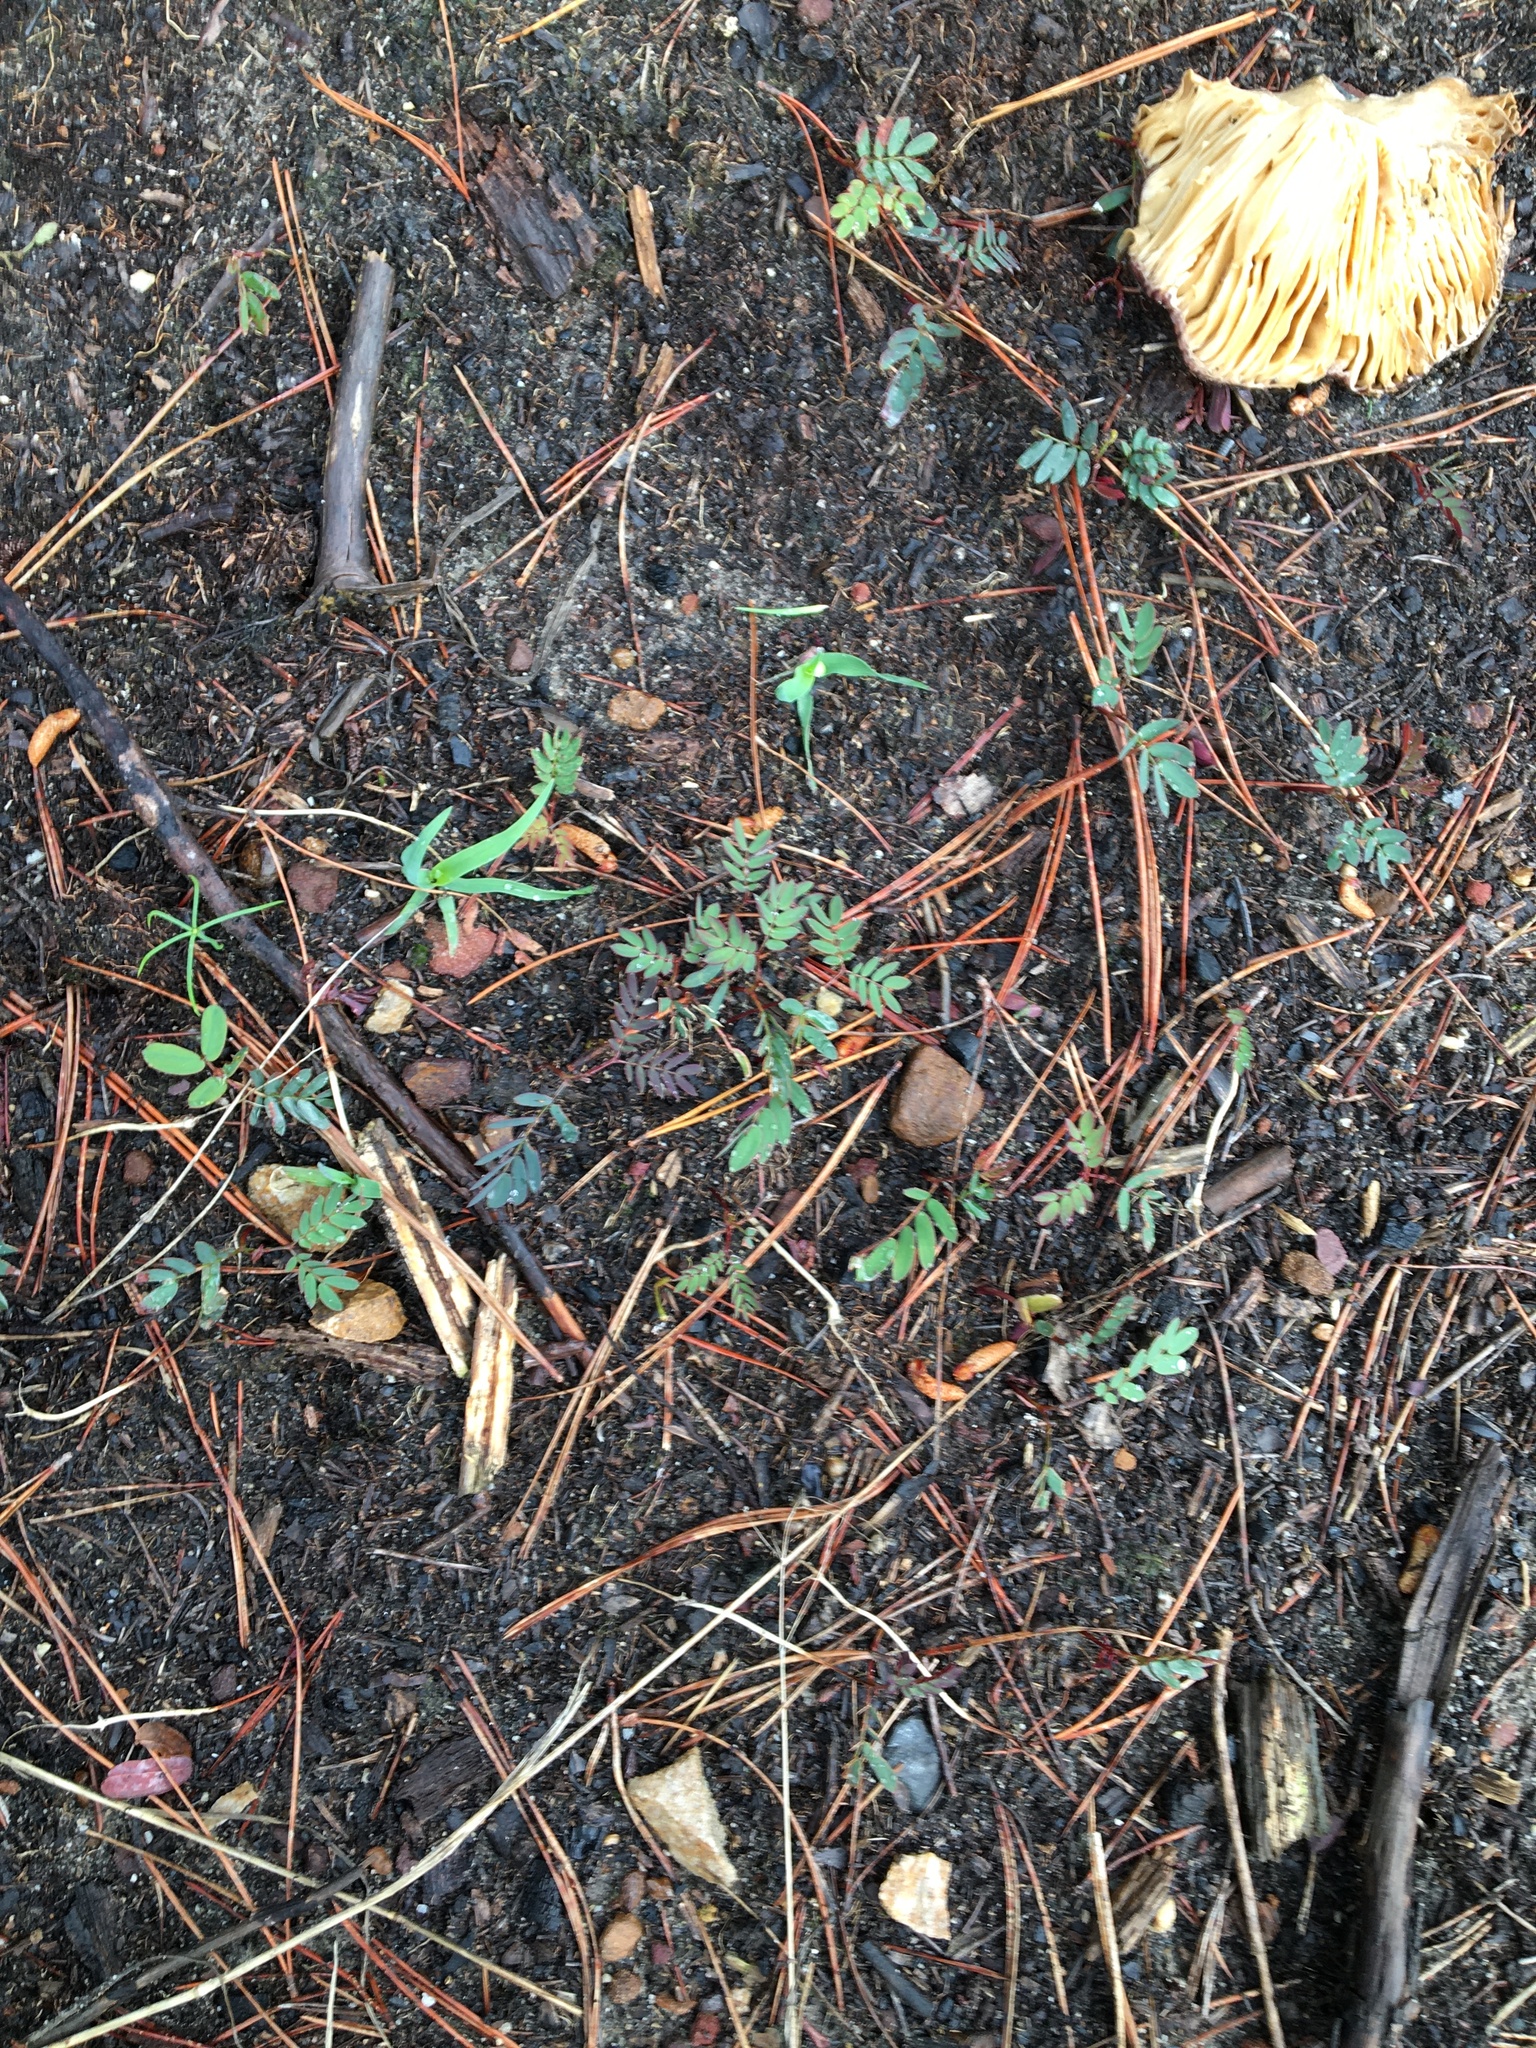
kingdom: Plantae
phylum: Tracheophyta
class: Magnoliopsida
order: Fabales
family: Fabaceae
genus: Acacia
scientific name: Acacia elata
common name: Cedar wattle
